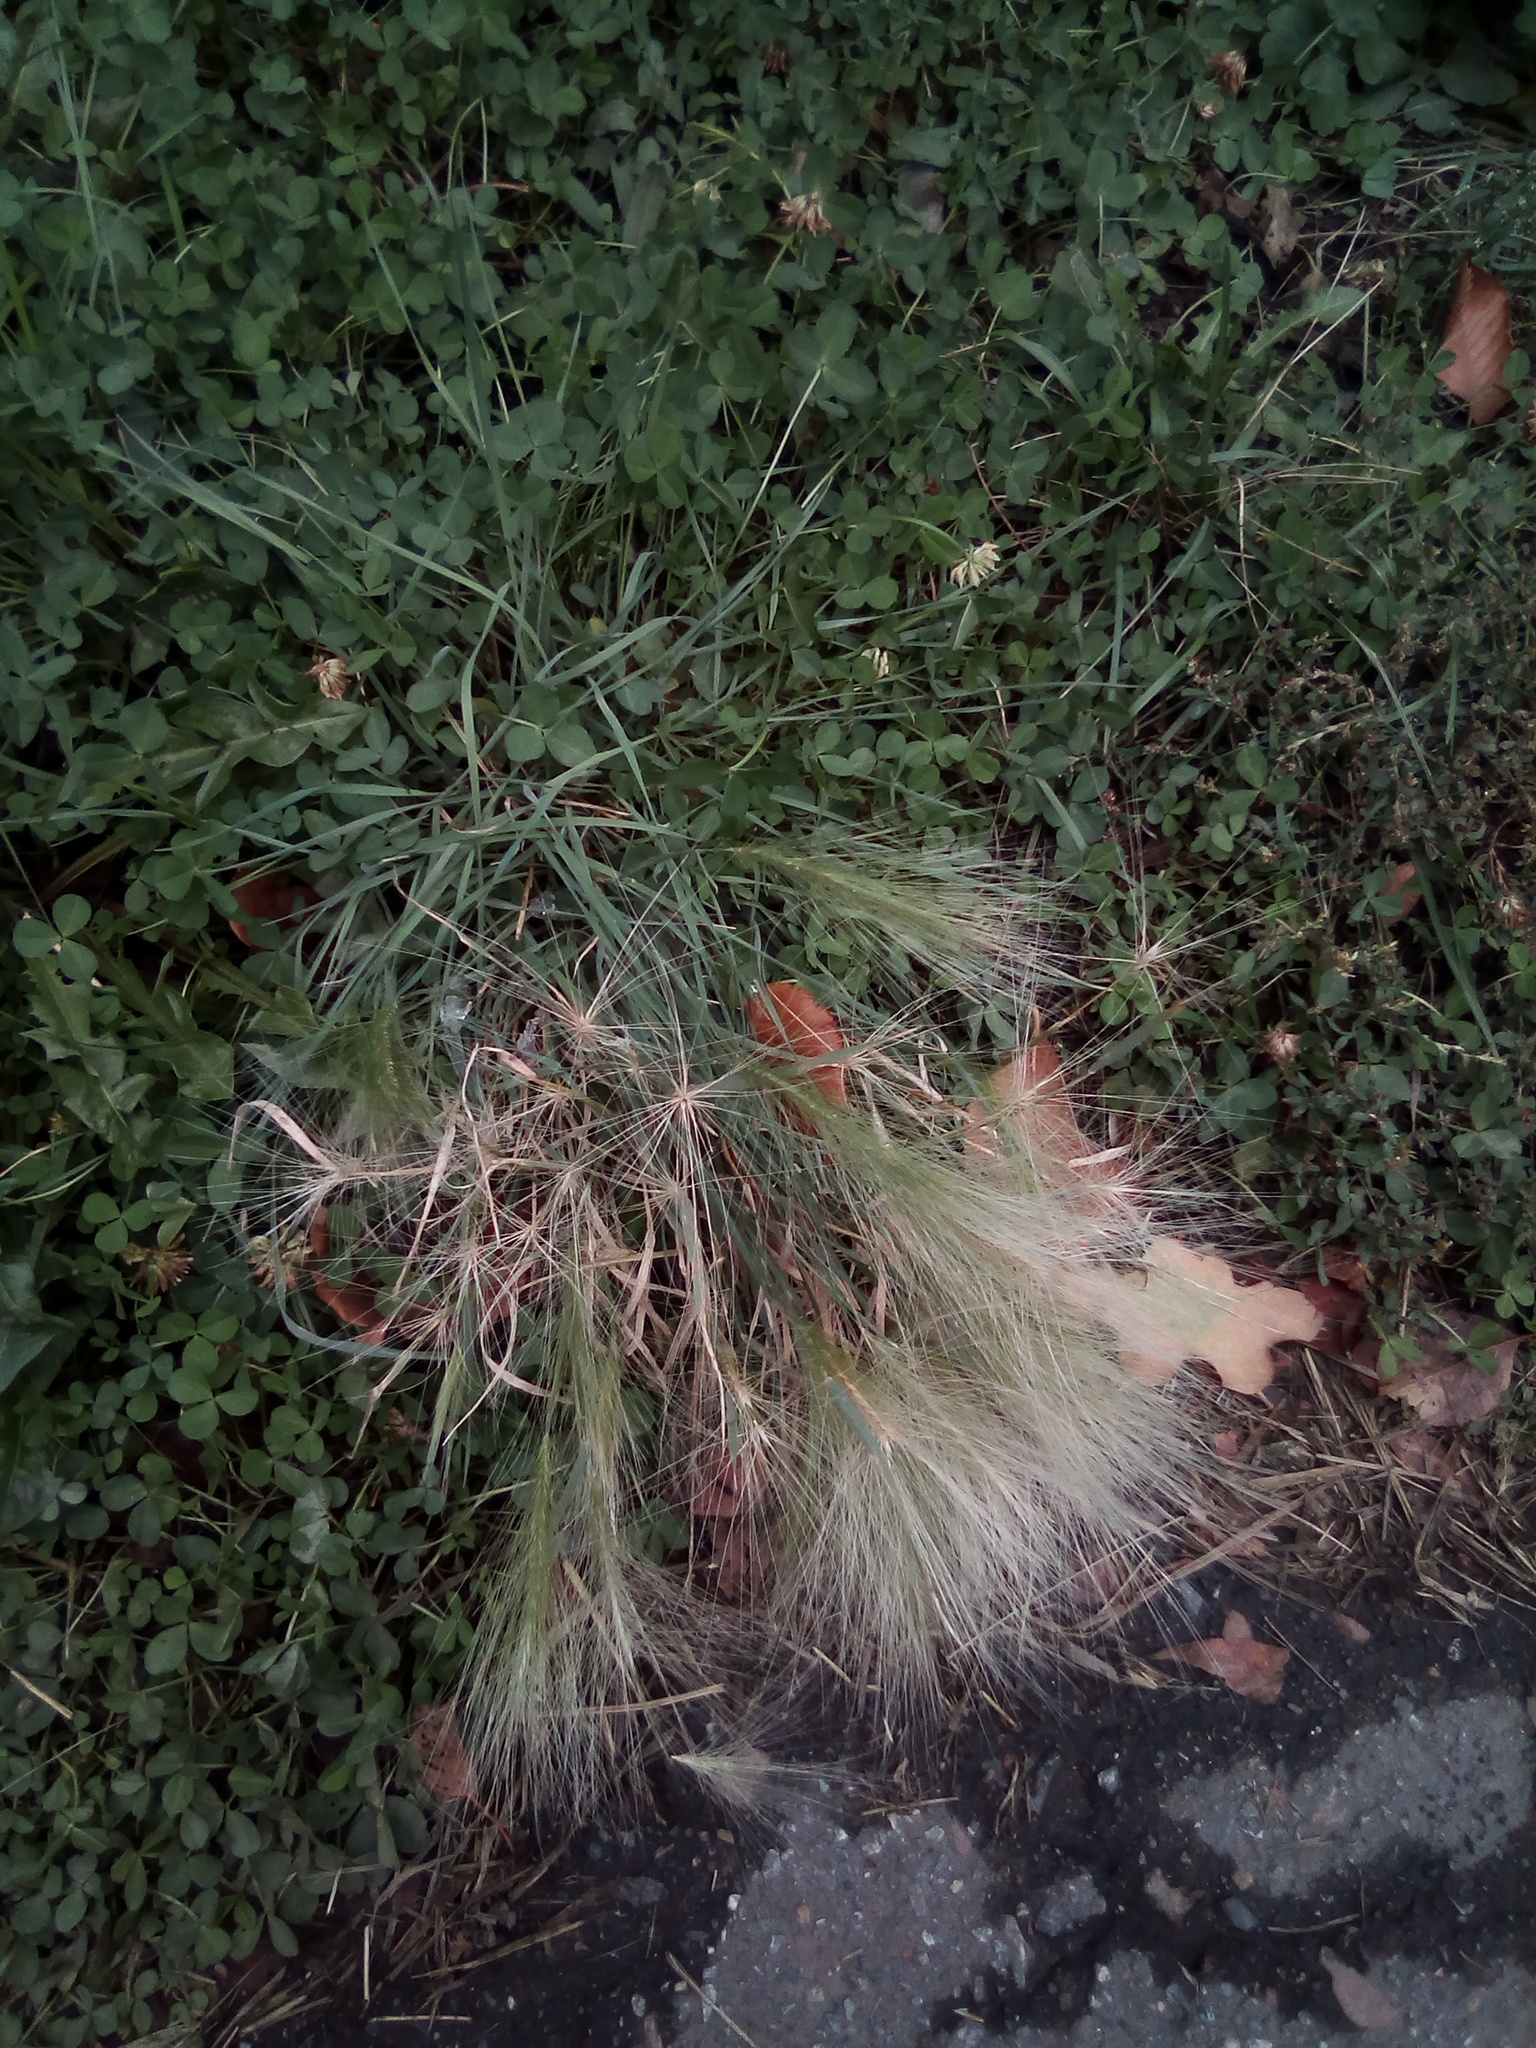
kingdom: Plantae
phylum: Tracheophyta
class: Liliopsida
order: Poales
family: Poaceae
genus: Hordeum
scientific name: Hordeum jubatum
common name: Foxtail barley
